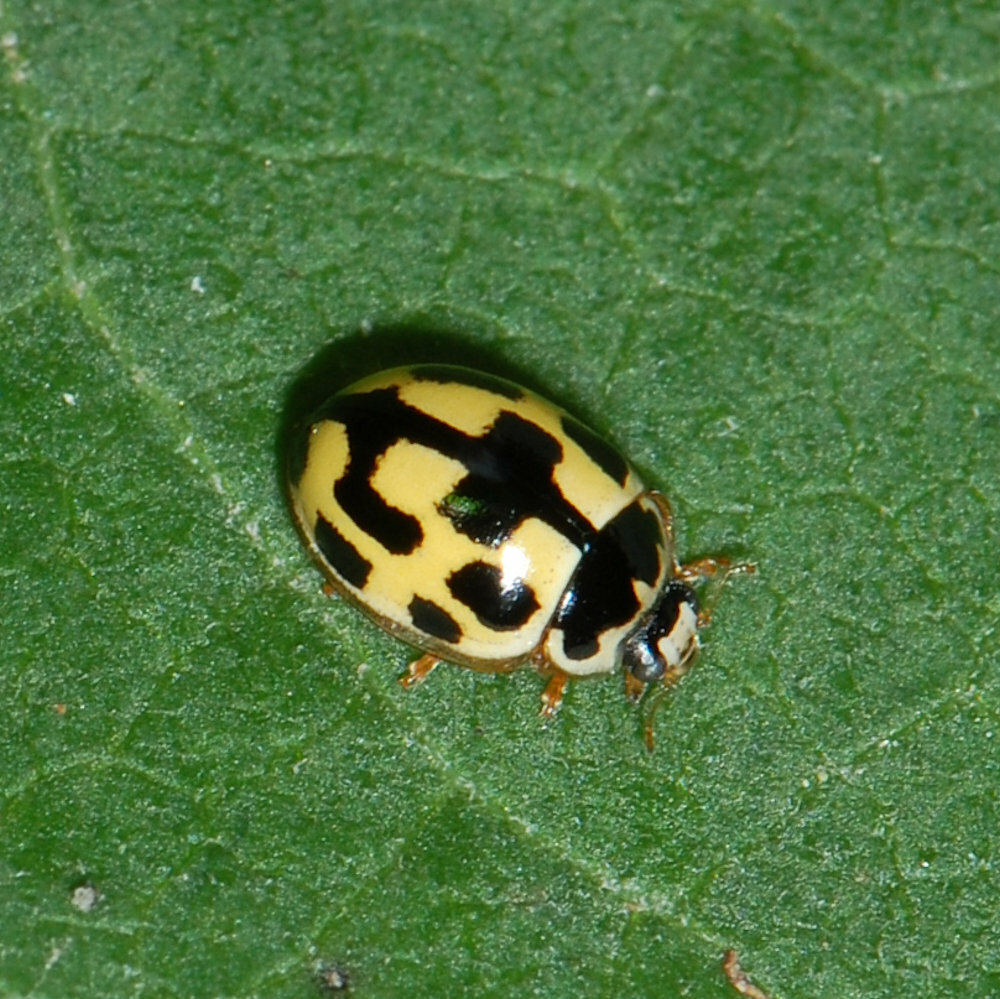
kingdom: Animalia
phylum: Arthropoda
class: Insecta
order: Coleoptera
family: Coccinellidae
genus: Propylaea
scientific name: Propylaea quatuordecimpunctata
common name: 14-spotted ladybird beetle
